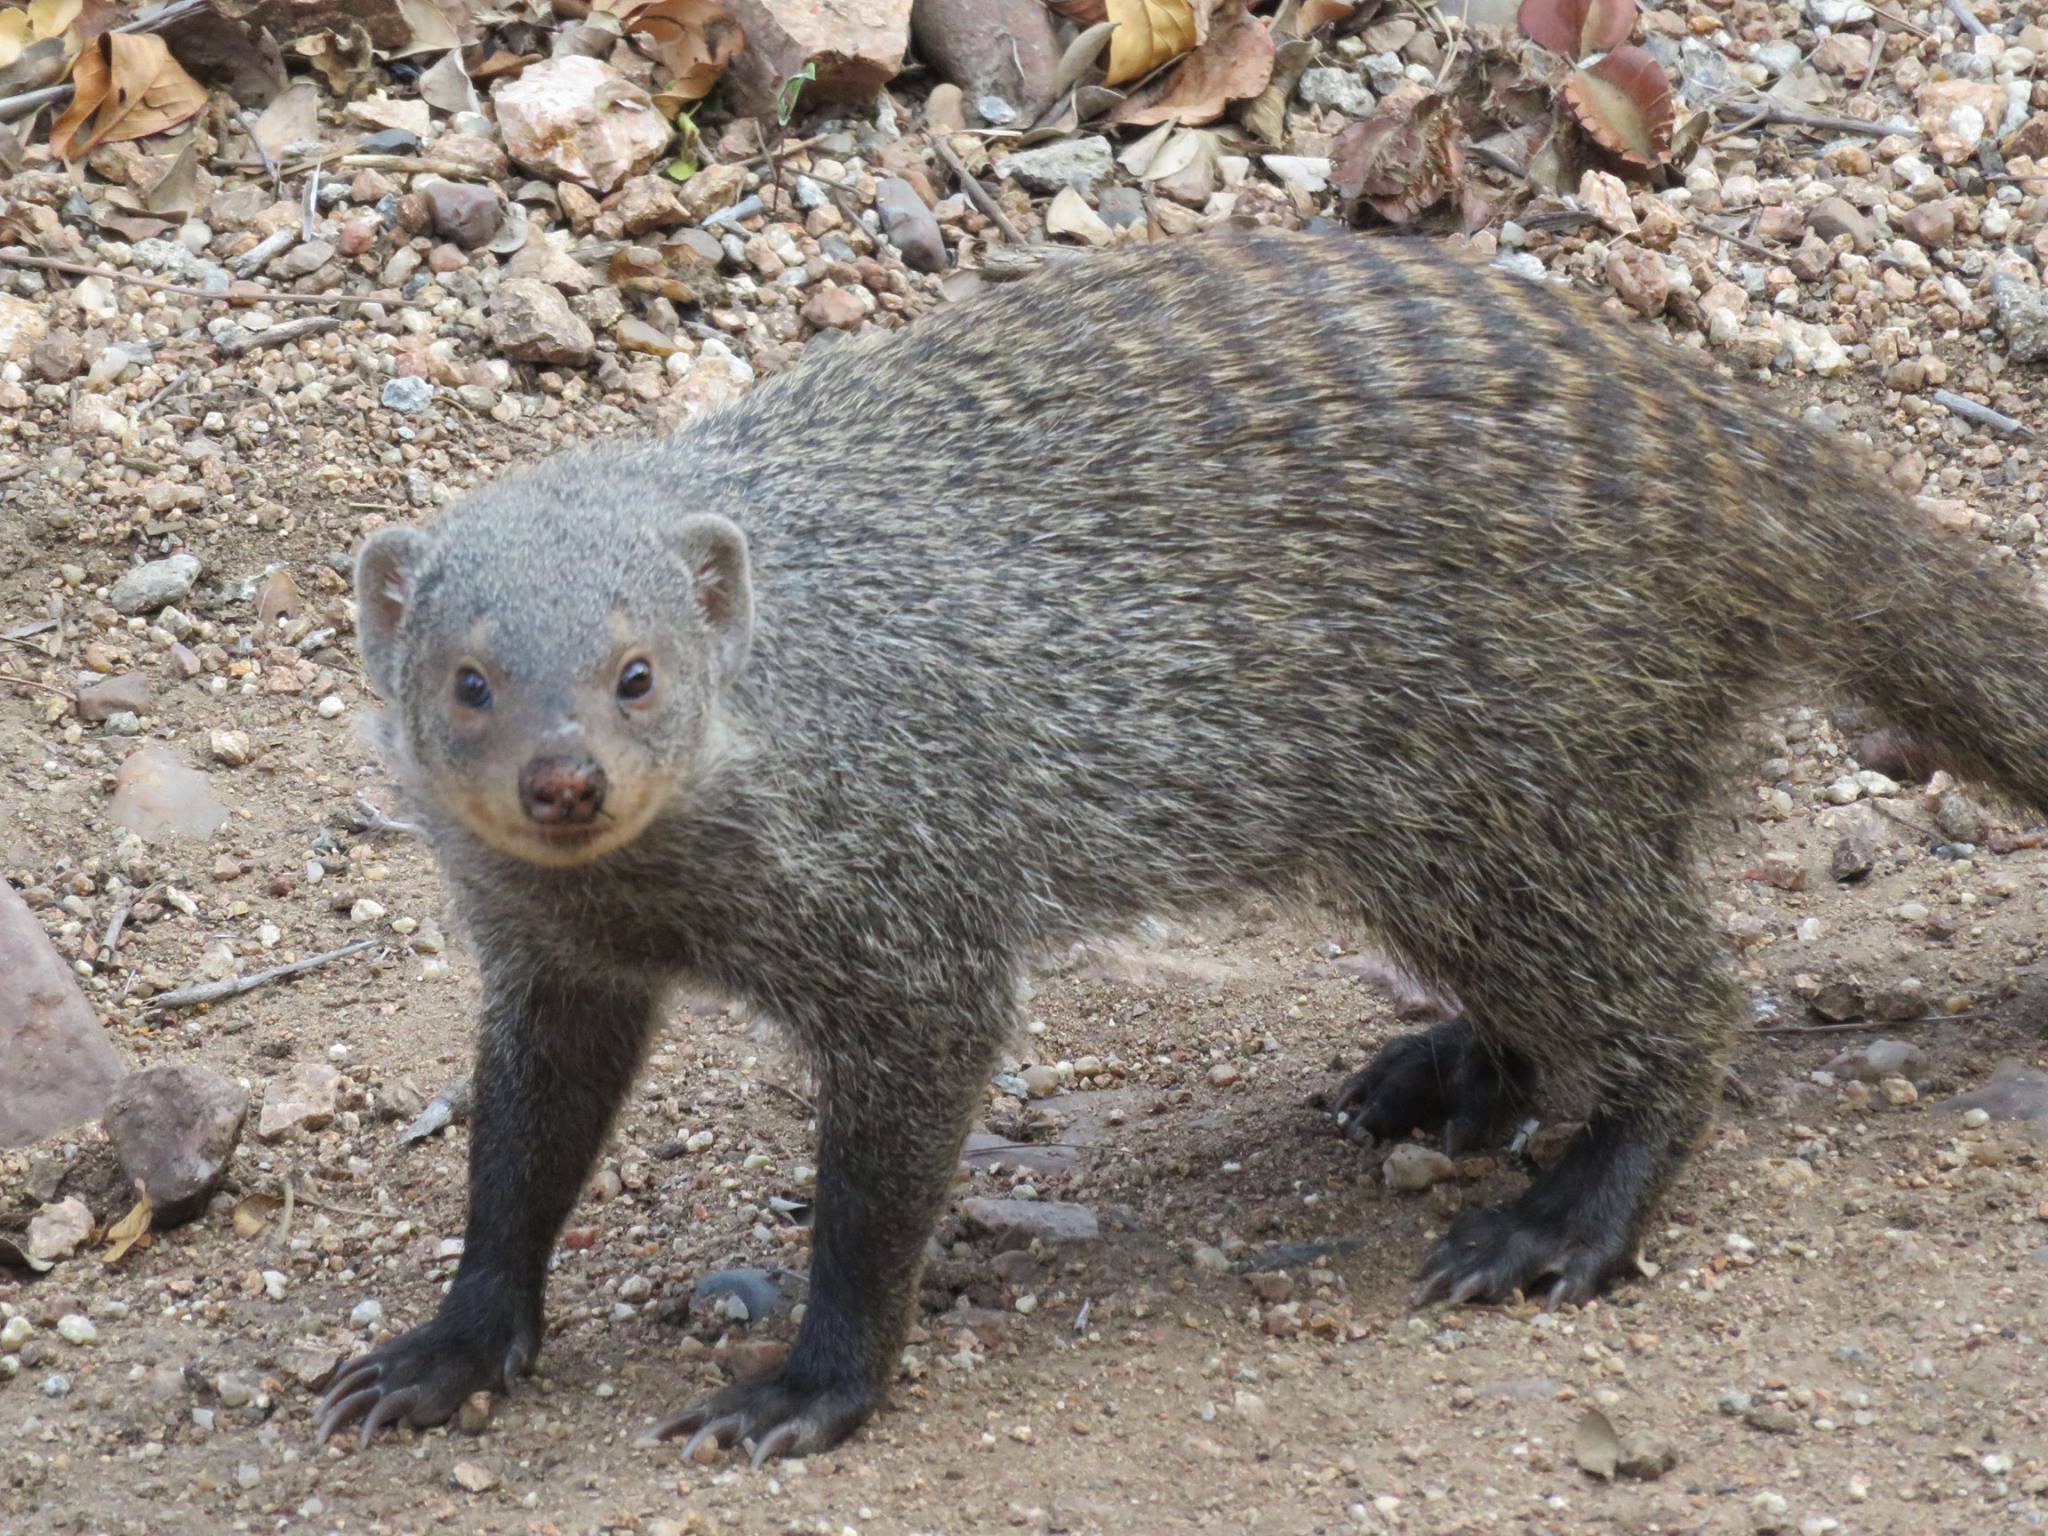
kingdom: Animalia
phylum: Chordata
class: Mammalia
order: Carnivora
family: Herpestidae
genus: Mungos
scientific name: Mungos mungo
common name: Banded mongoose
